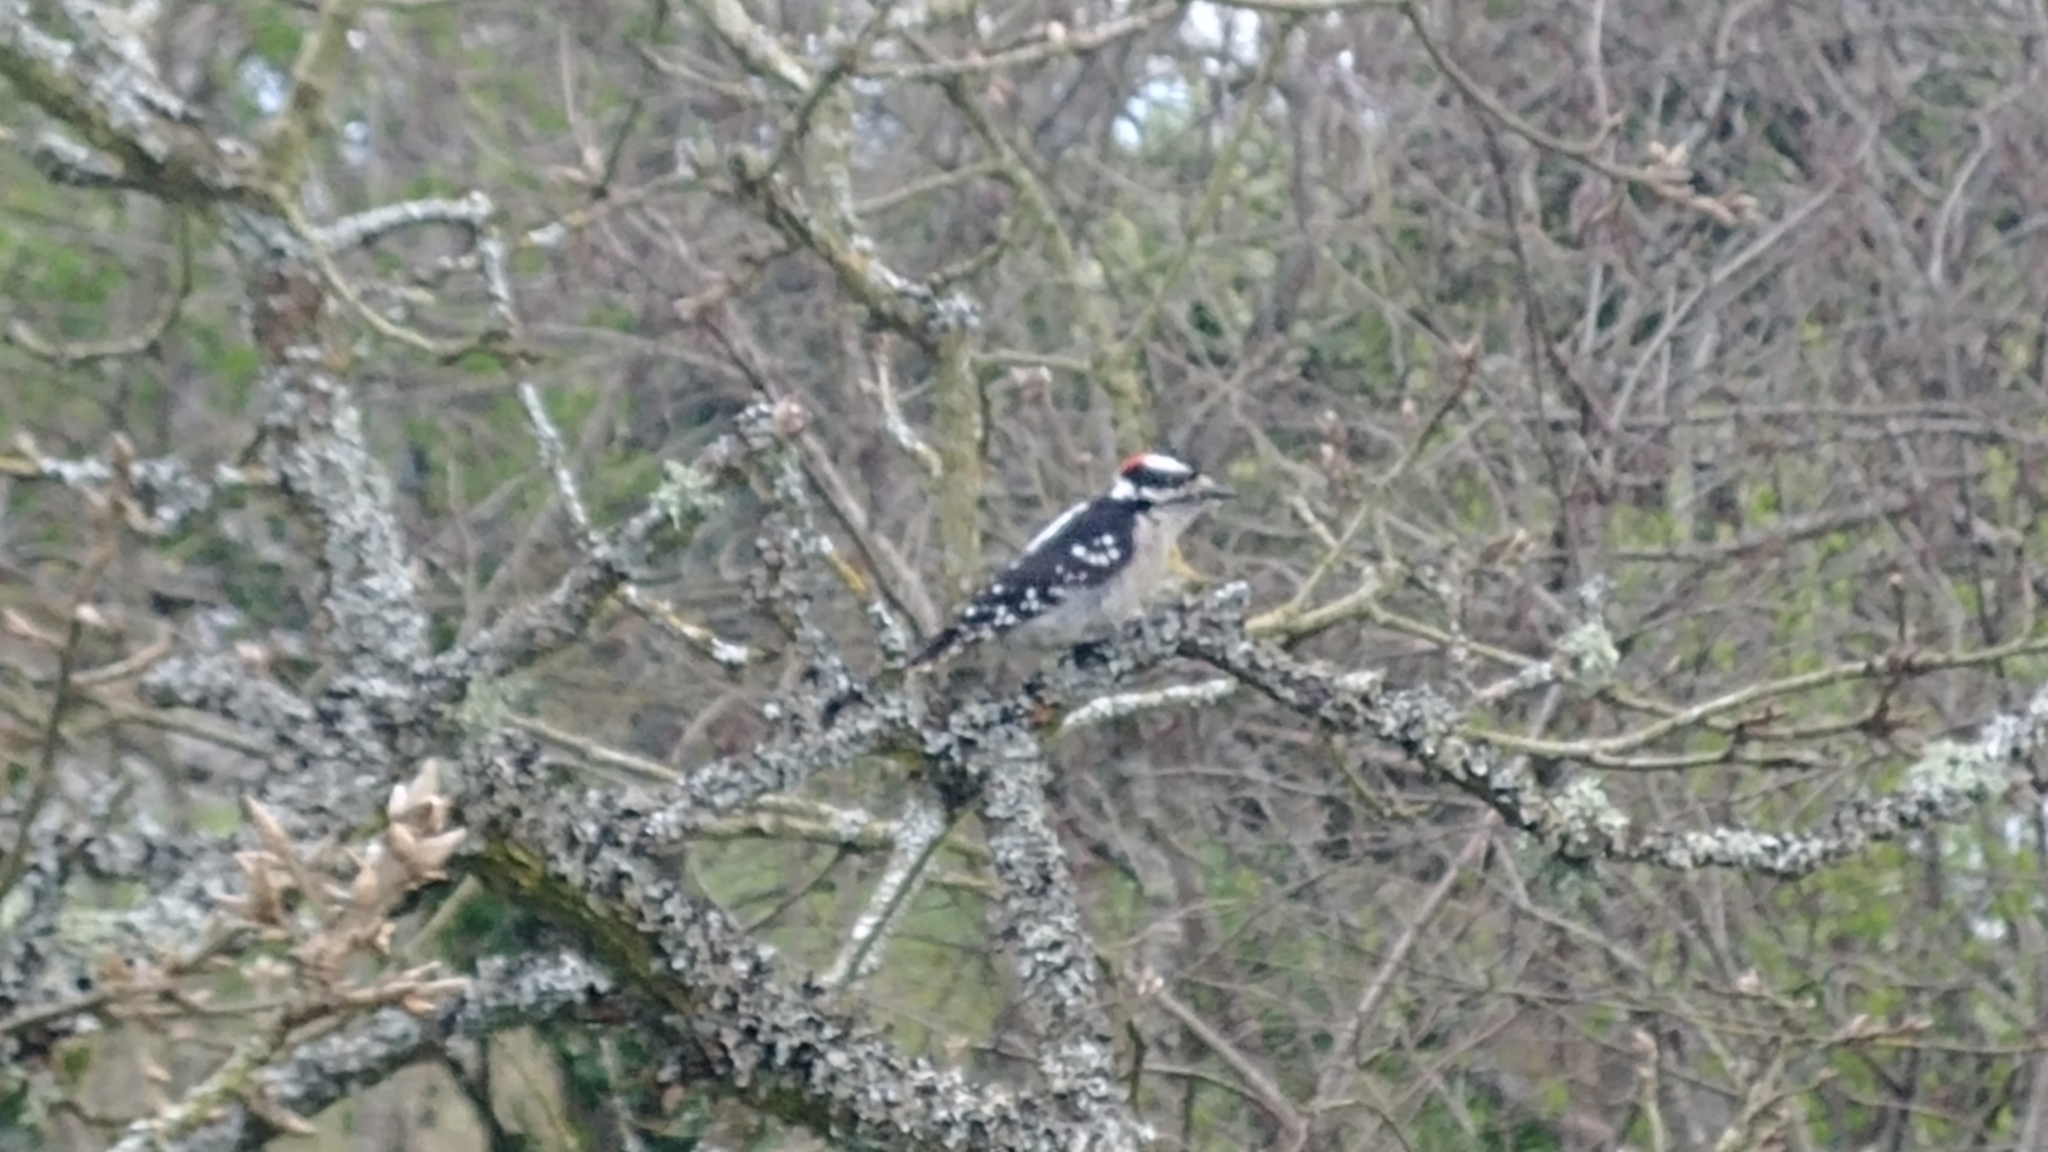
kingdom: Animalia
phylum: Chordata
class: Aves
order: Piciformes
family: Picidae
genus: Dryobates
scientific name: Dryobates pubescens
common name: Downy woodpecker
